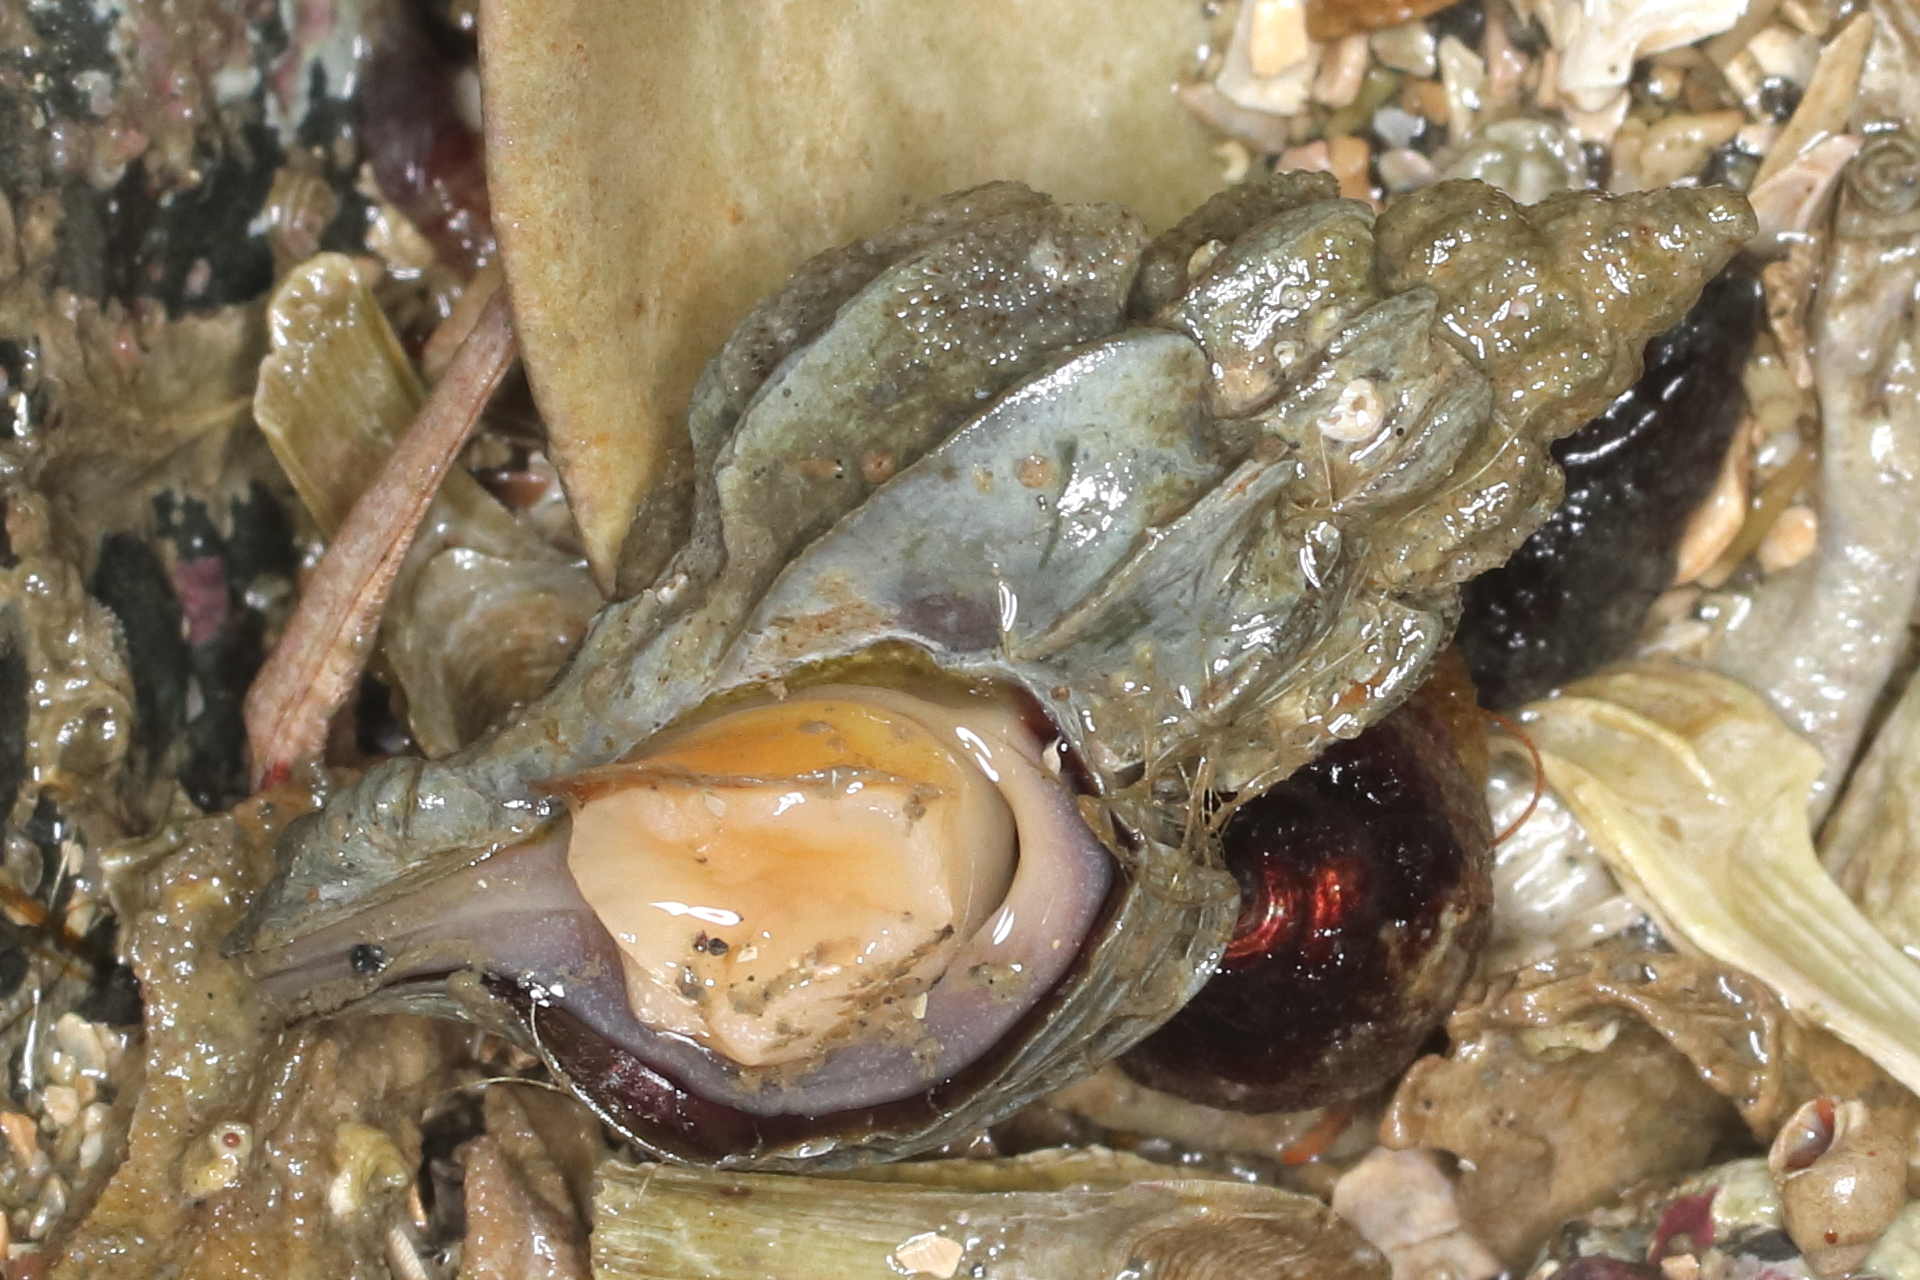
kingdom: Animalia
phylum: Mollusca
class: Gastropoda
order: Neogastropoda
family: Muricidae
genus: Scabrotrophon
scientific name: Scabrotrophon stuarti
